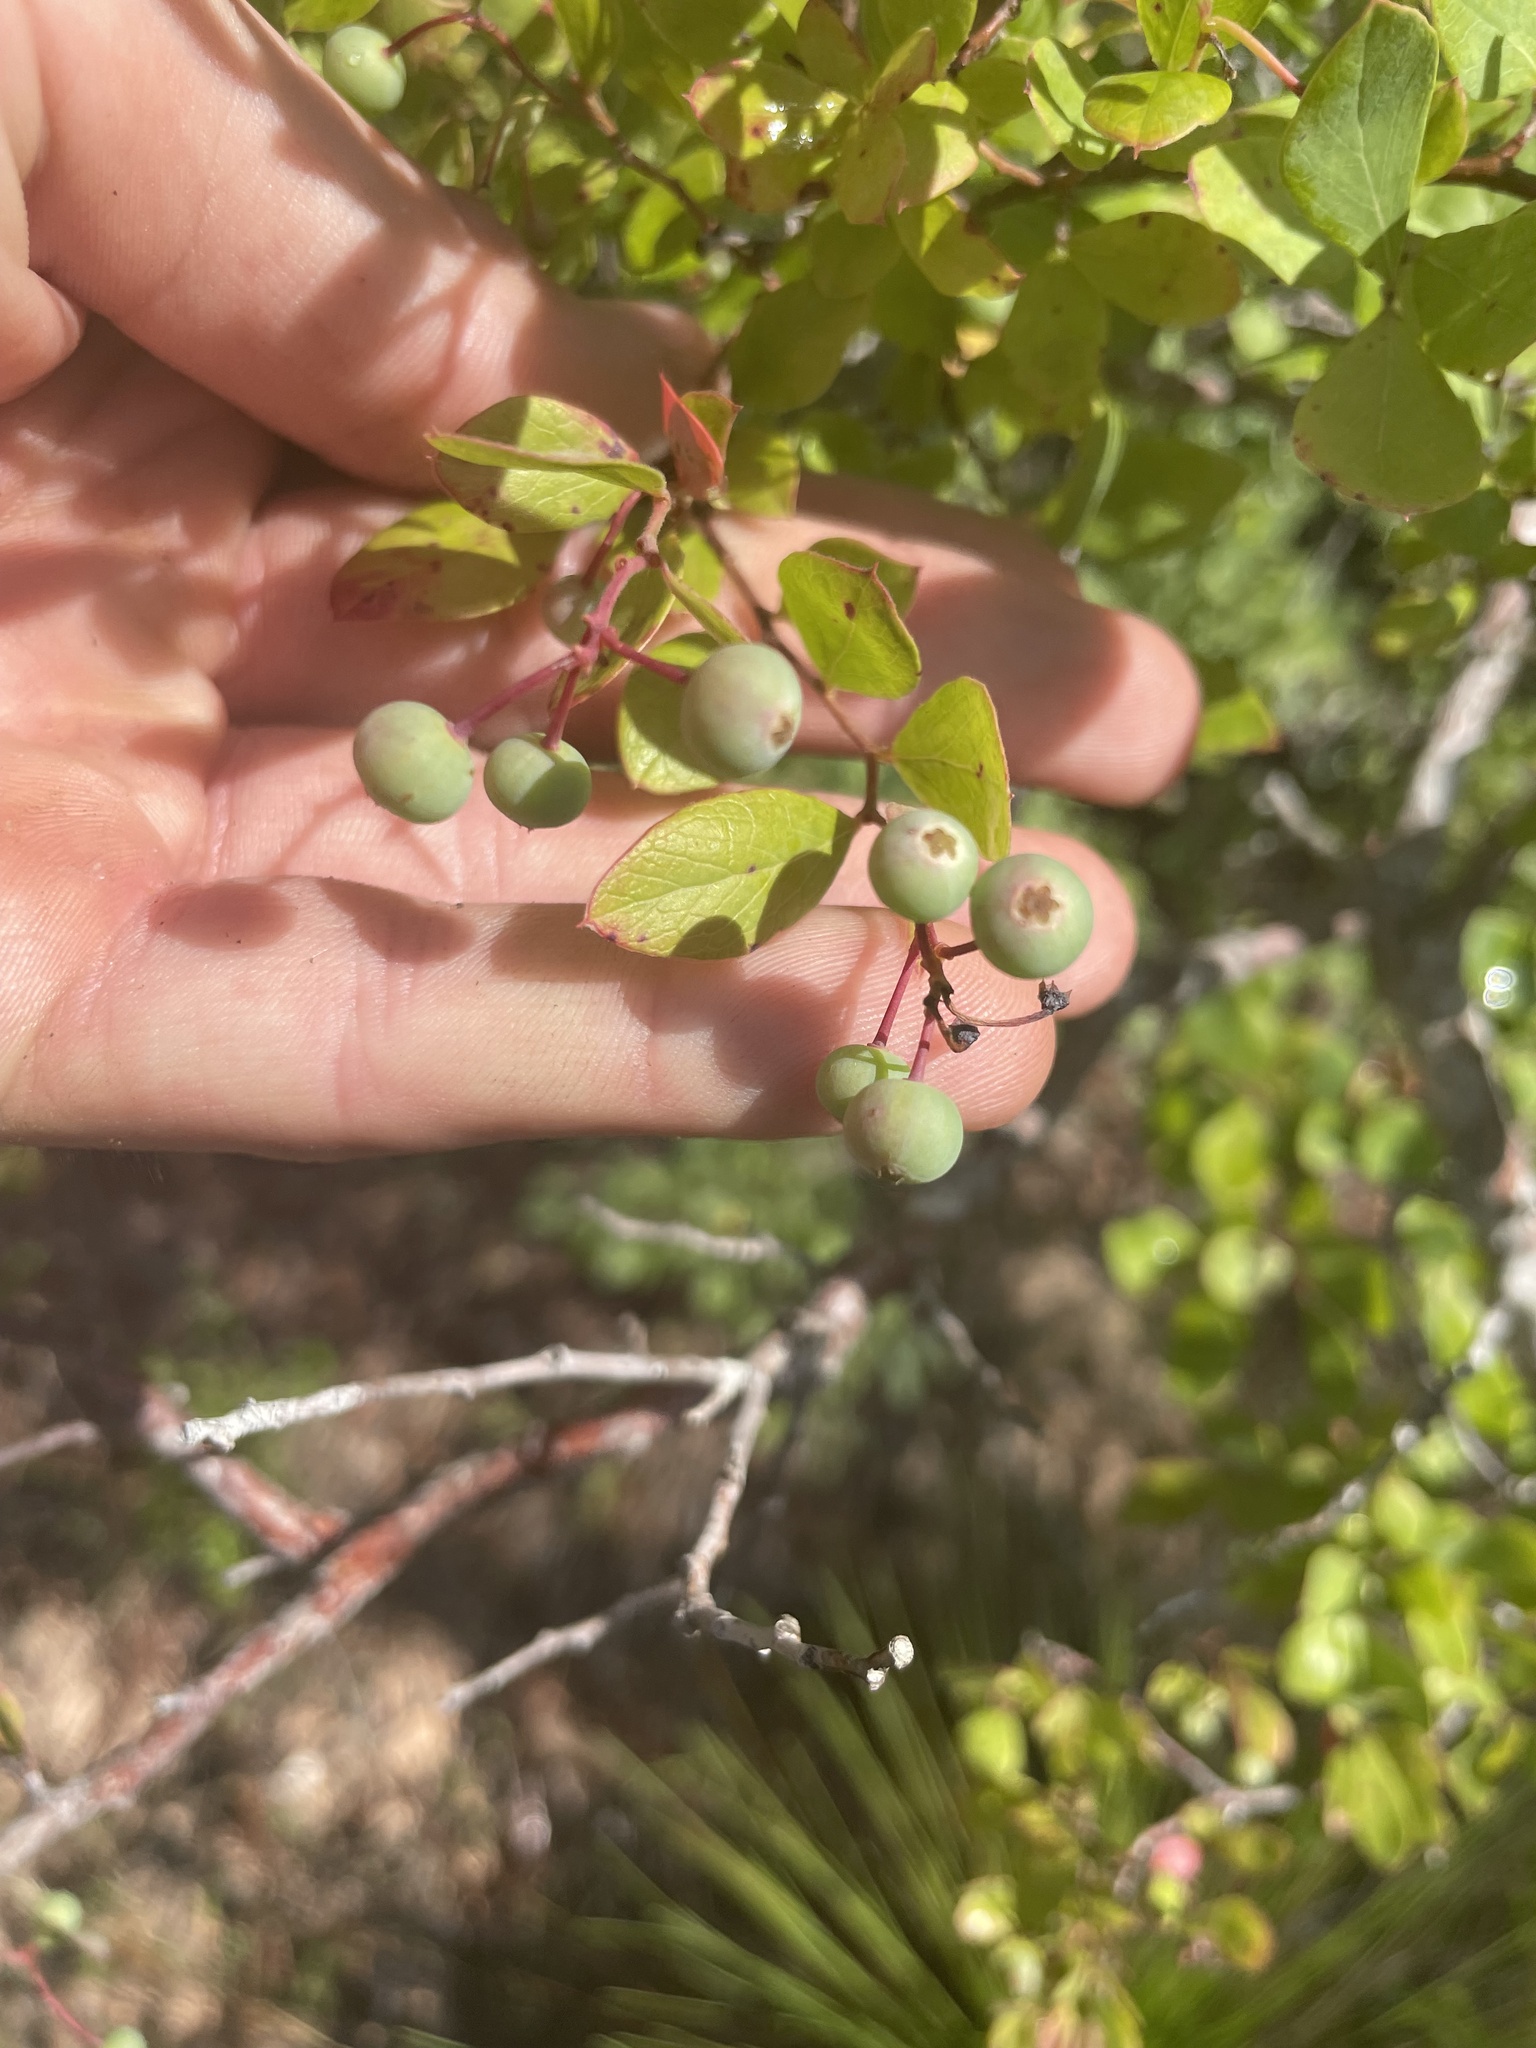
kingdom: Plantae
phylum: Tracheophyta
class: Magnoliopsida
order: Ericales
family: Ericaceae
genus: Vaccinium
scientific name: Vaccinium arboreum
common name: Farkleberry
